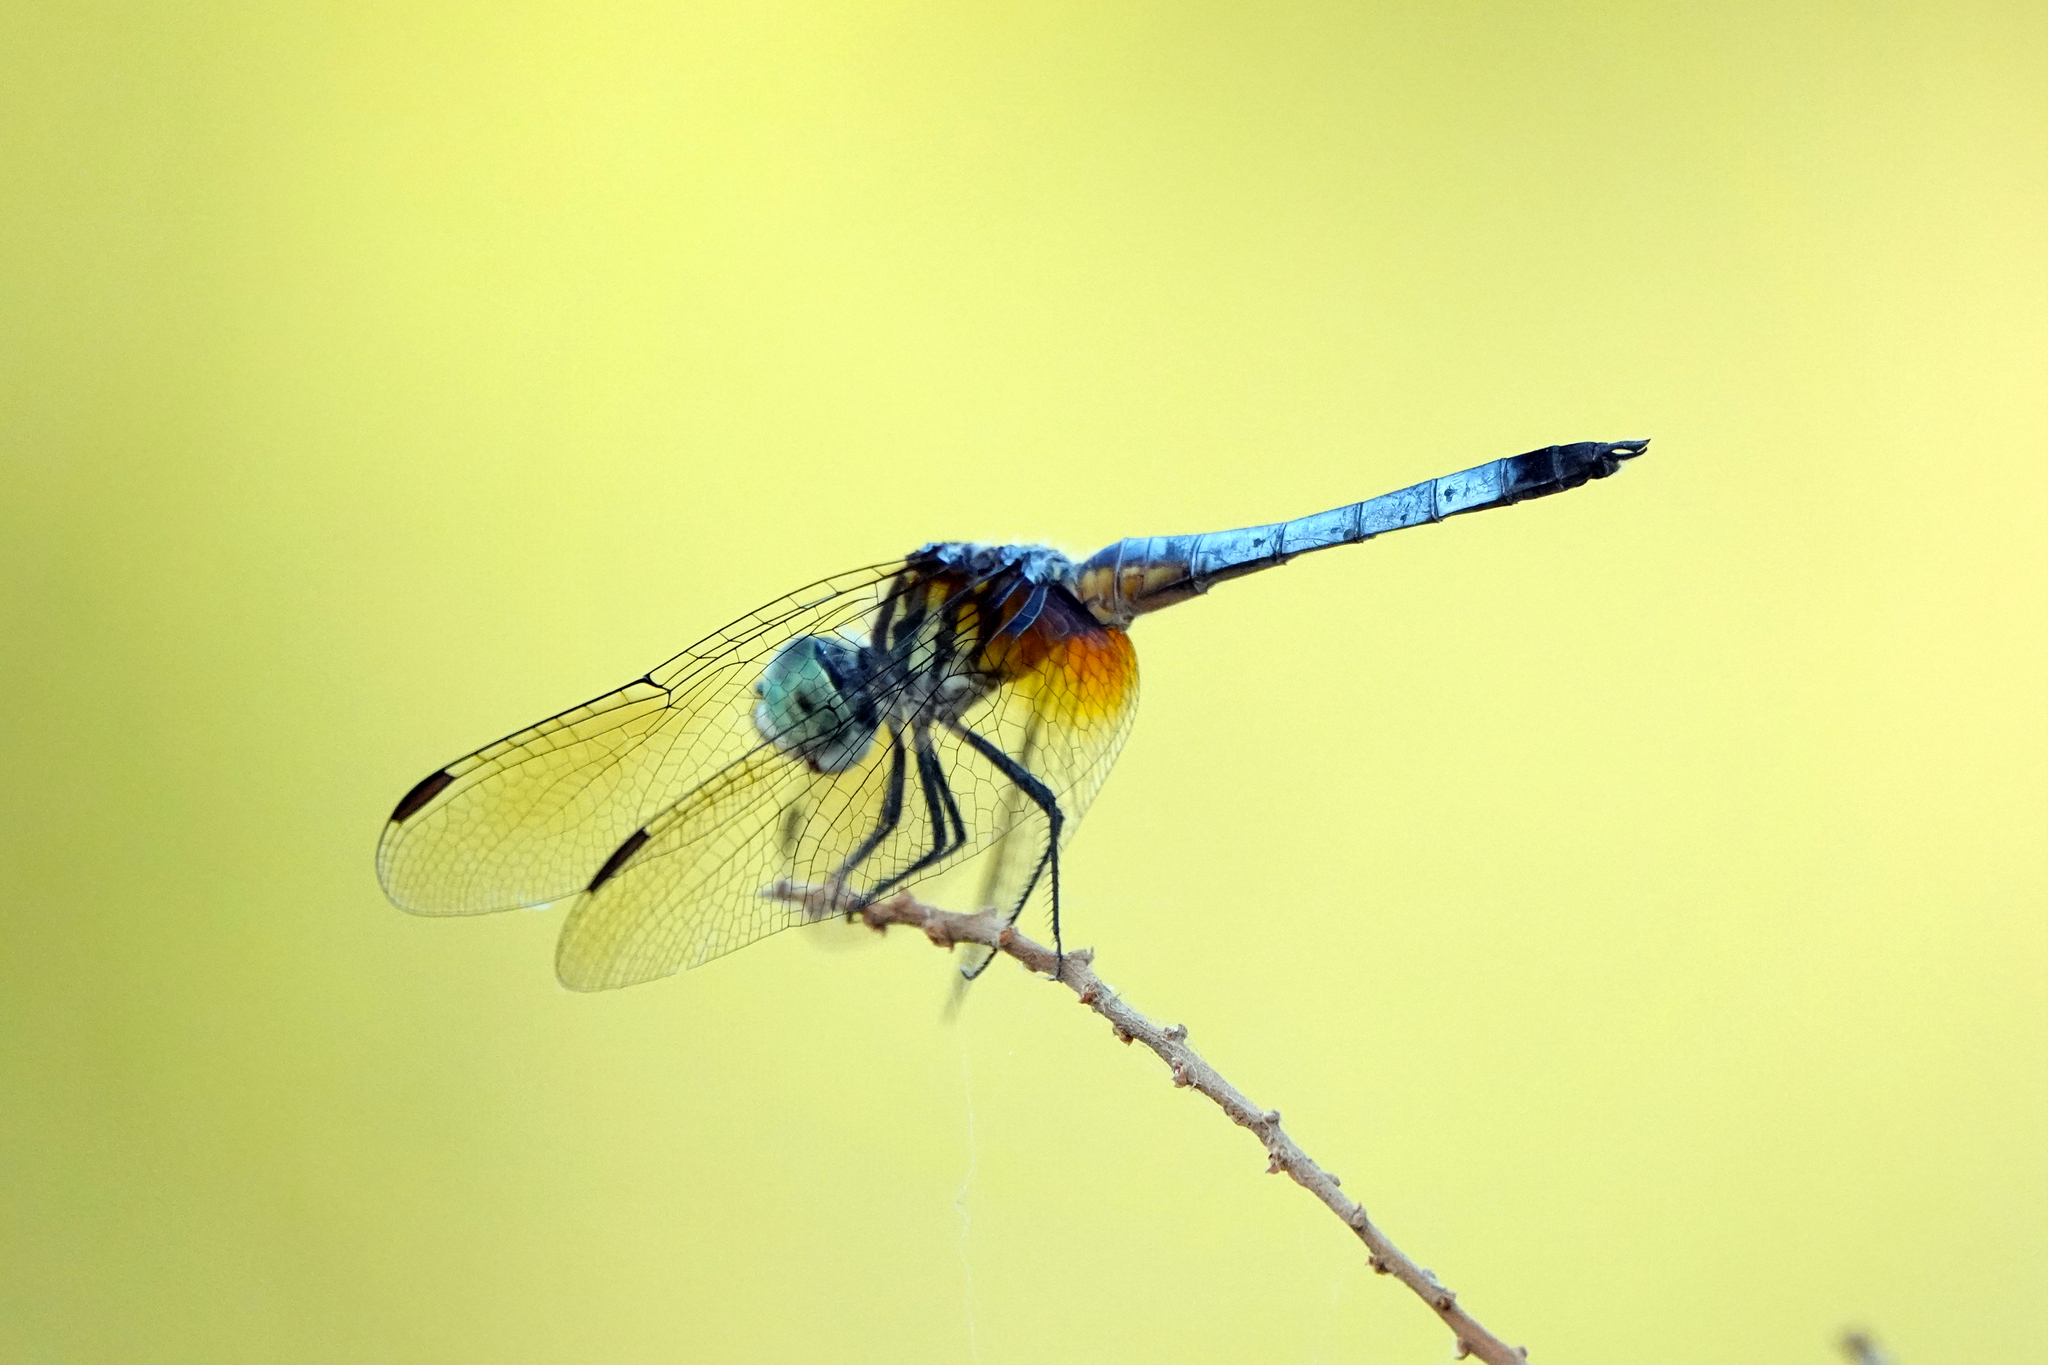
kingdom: Animalia
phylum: Arthropoda
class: Insecta
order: Odonata
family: Libellulidae
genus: Pachydiplax
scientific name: Pachydiplax longipennis
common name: Blue dasher
